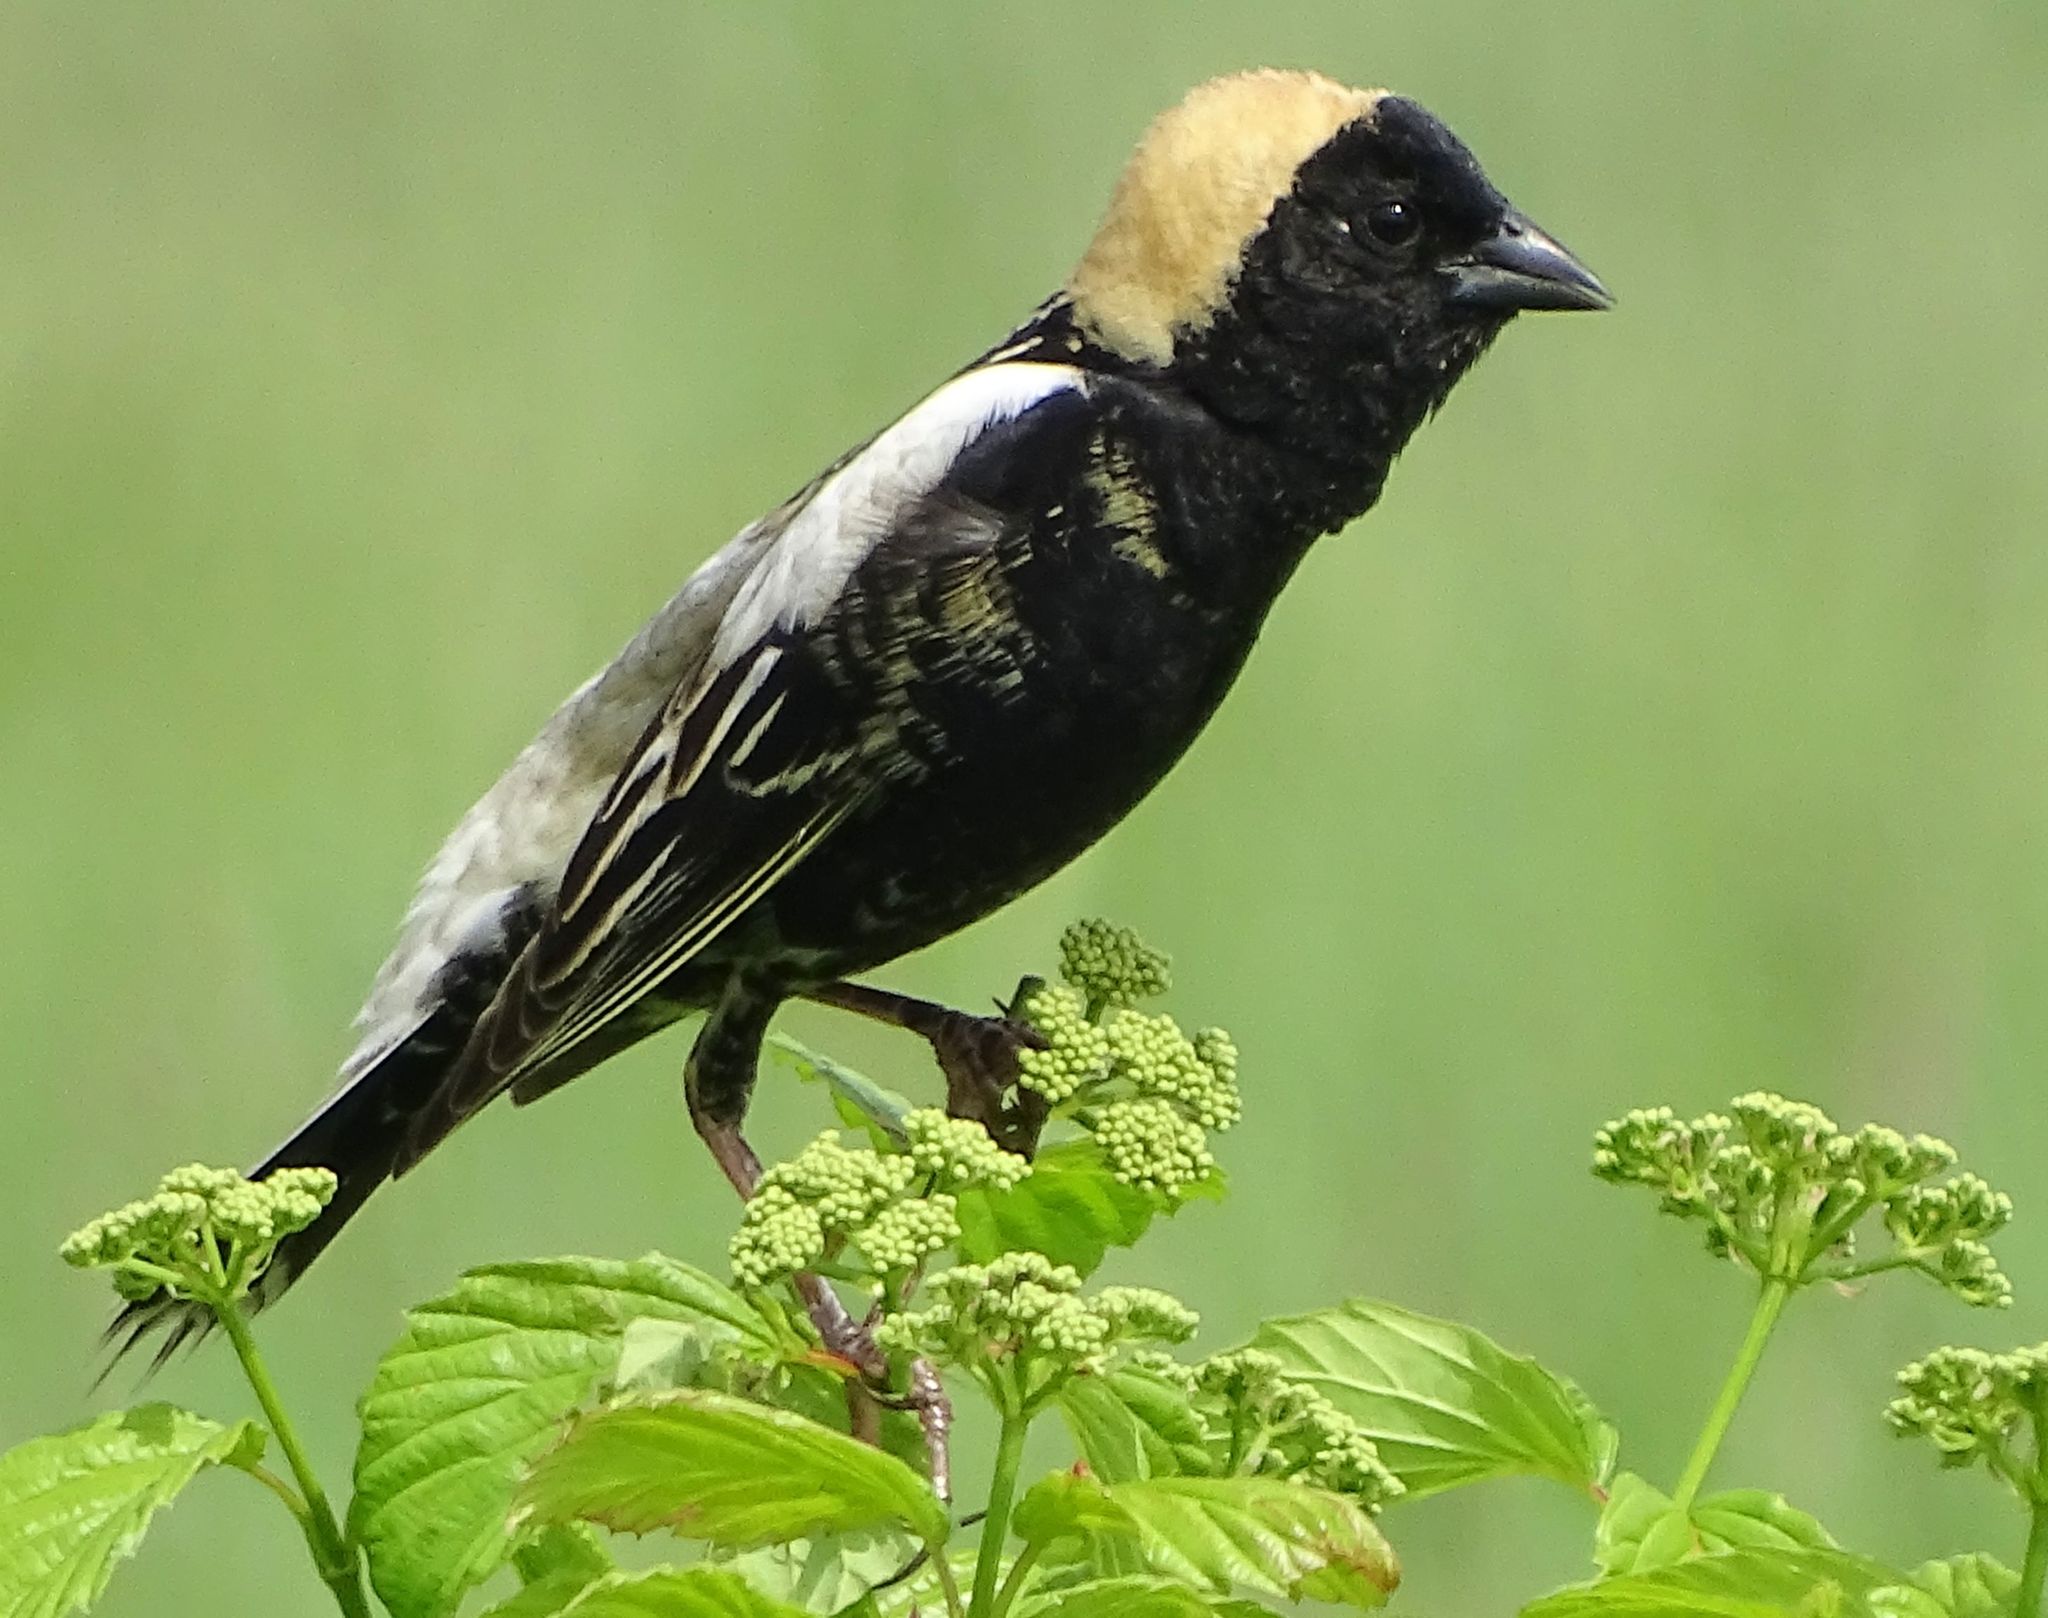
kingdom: Animalia
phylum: Chordata
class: Aves
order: Passeriformes
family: Icteridae
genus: Dolichonyx
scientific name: Dolichonyx oryzivorus
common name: Bobolink
